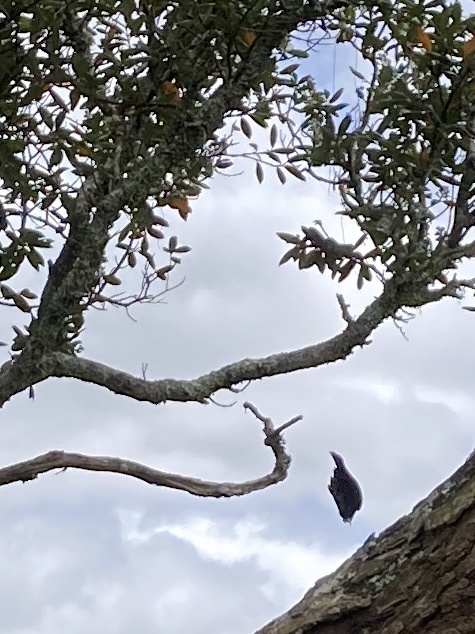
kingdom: Animalia
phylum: Chordata
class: Aves
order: Passeriformes
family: Meliphagidae
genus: Prosthemadera
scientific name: Prosthemadera novaeseelandiae
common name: Tui
